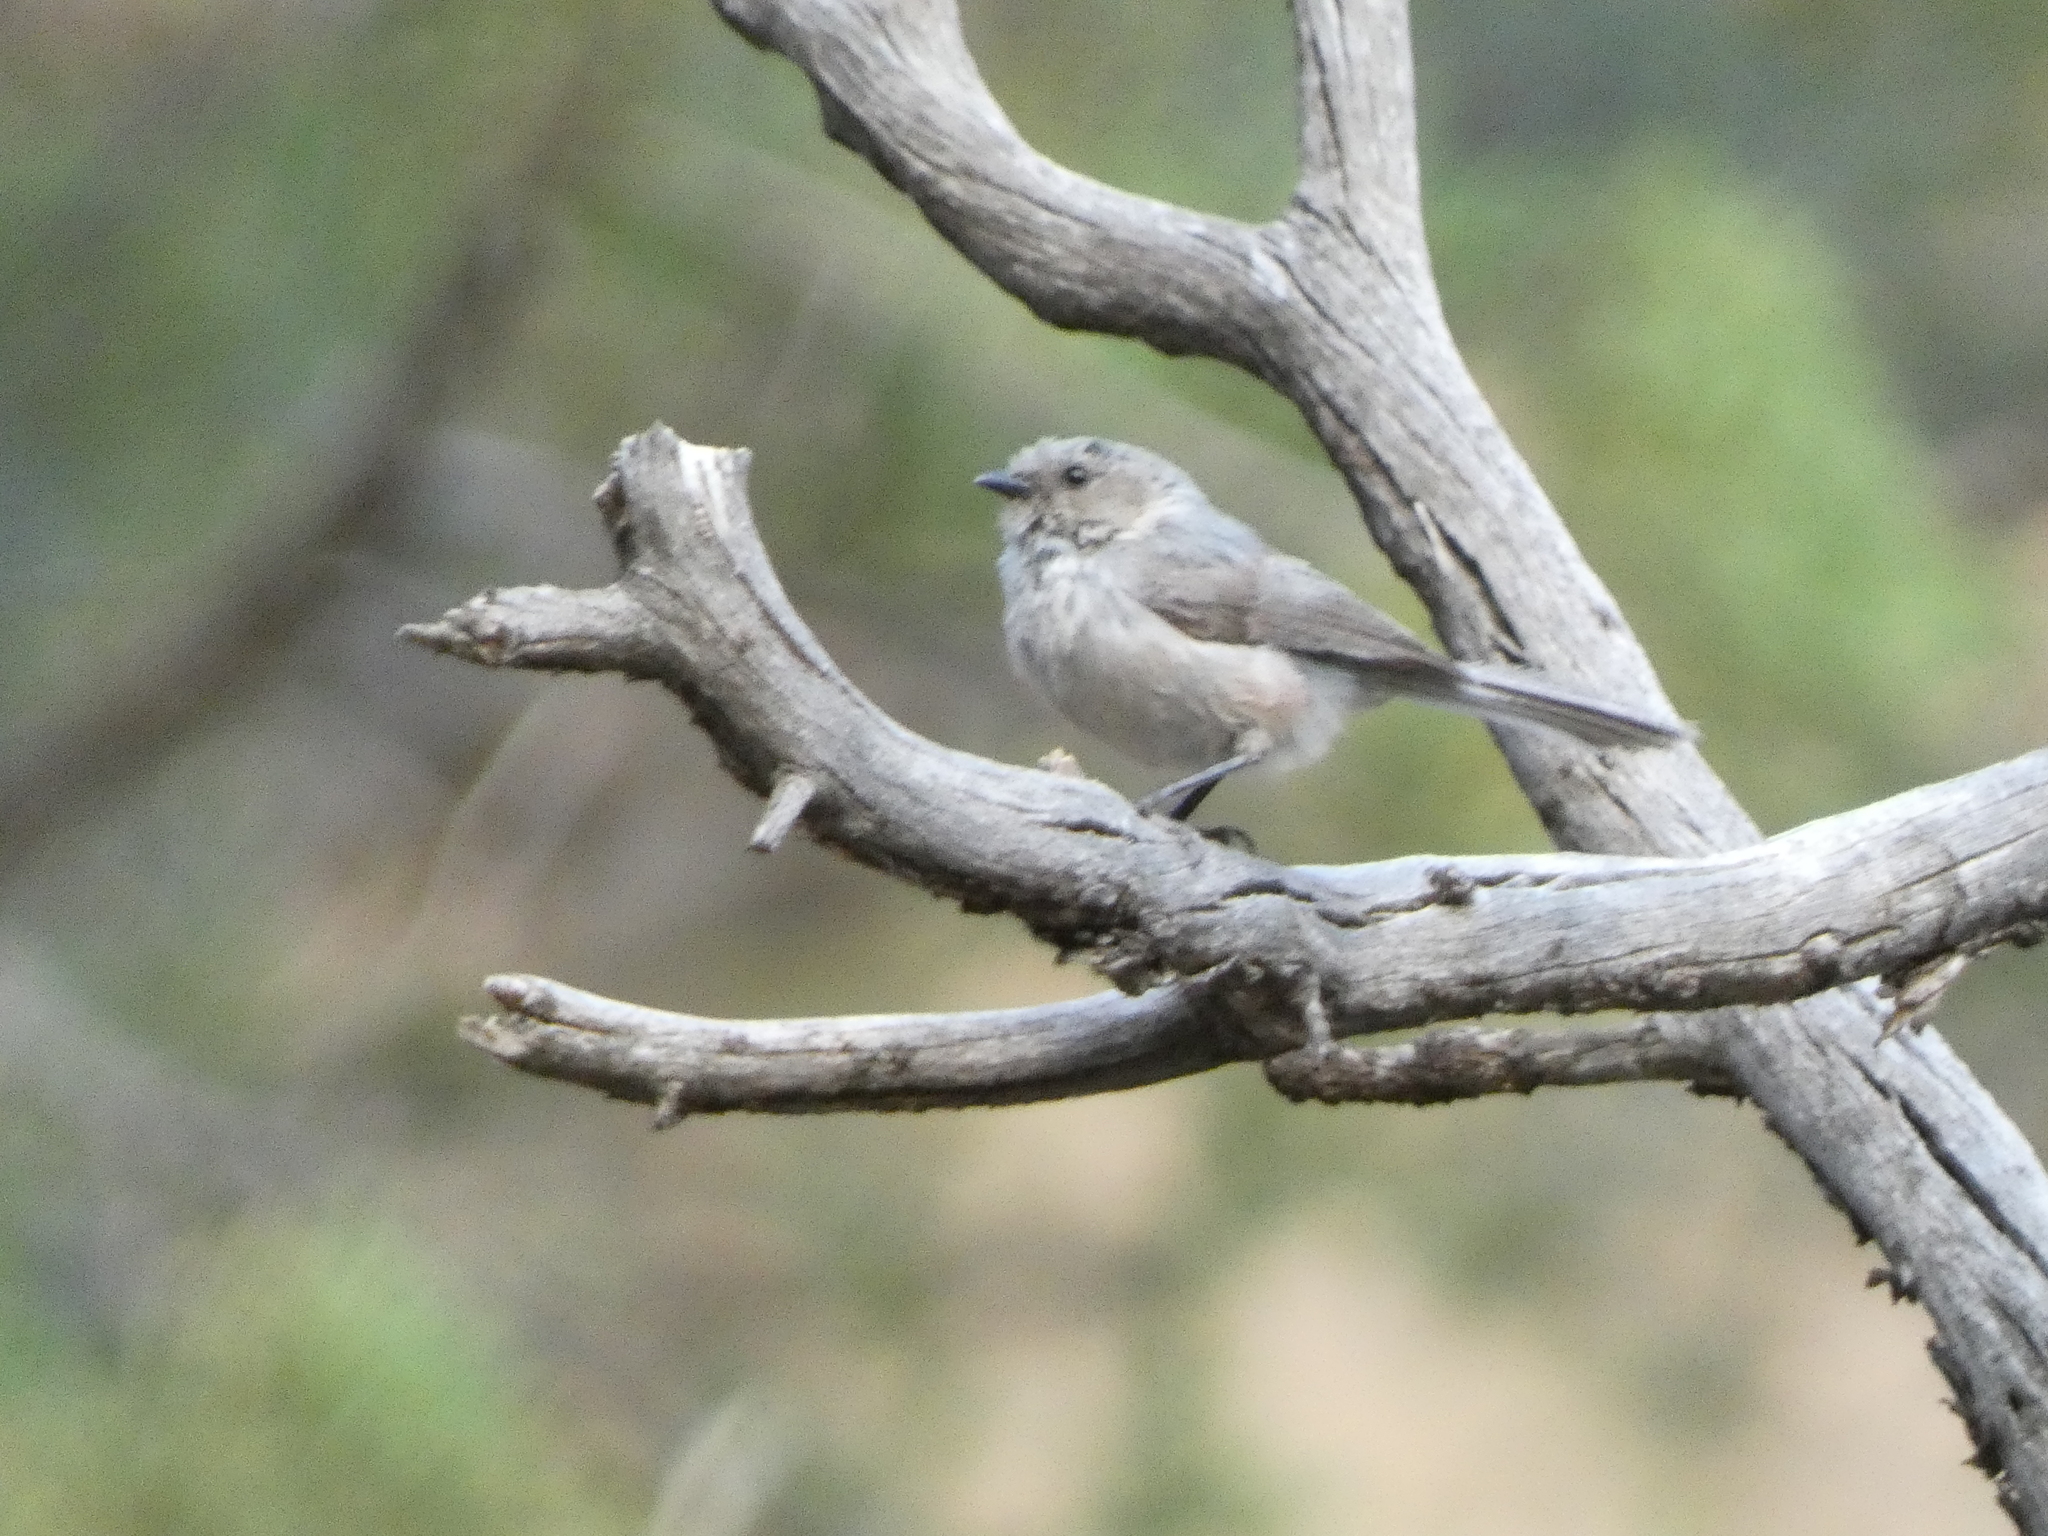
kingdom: Animalia
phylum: Chordata
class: Aves
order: Passeriformes
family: Aegithalidae
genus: Psaltriparus
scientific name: Psaltriparus minimus
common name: American bushtit
